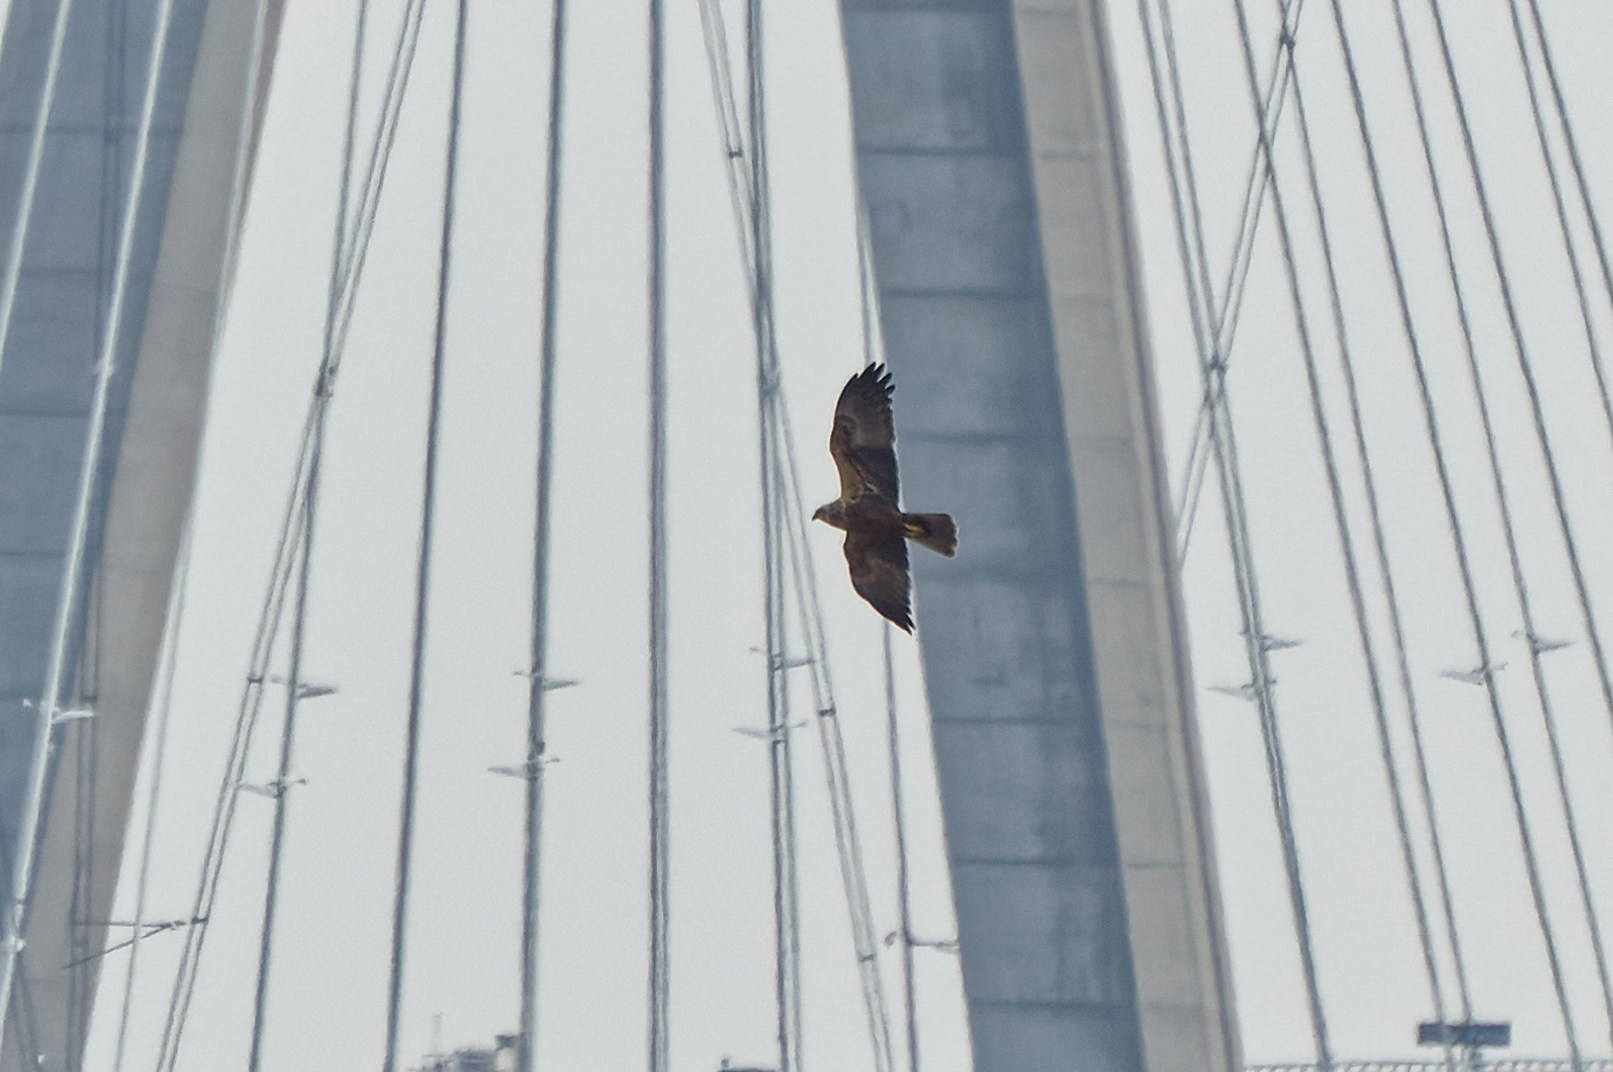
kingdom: Animalia
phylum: Chordata
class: Aves
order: Accipitriformes
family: Accipitridae
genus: Circus
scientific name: Circus aeruginosus
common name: Western marsh harrier
